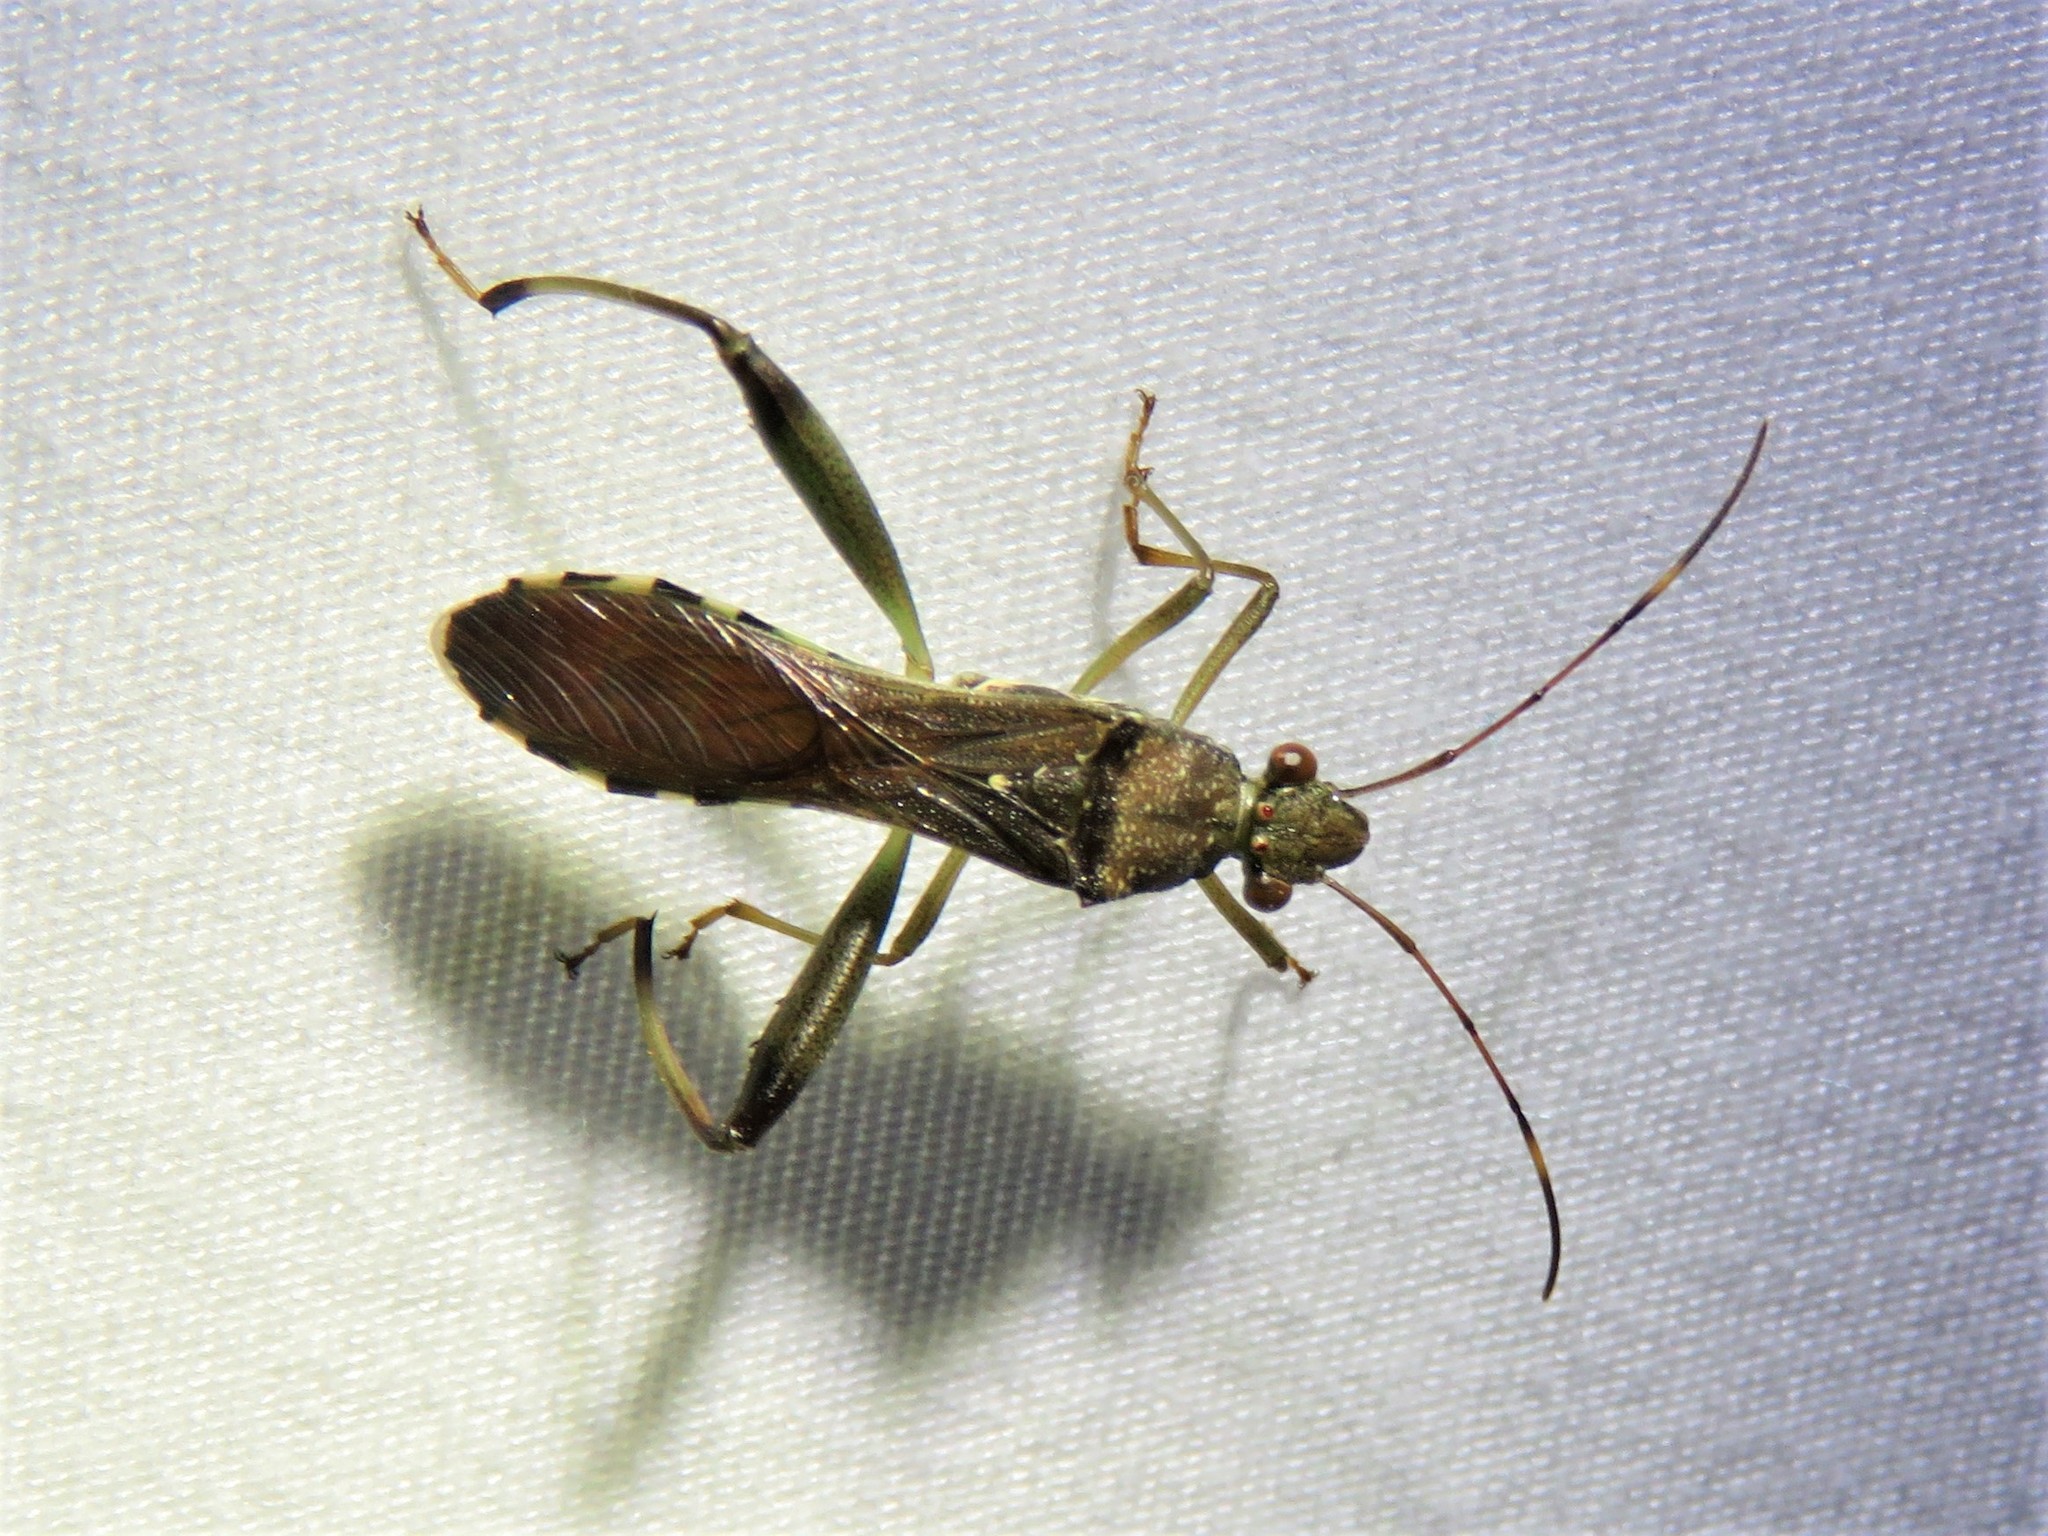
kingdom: Animalia
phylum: Arthropoda
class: Insecta
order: Hemiptera
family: Alydidae
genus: Hyalymenus
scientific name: Hyalymenus tarsatus
